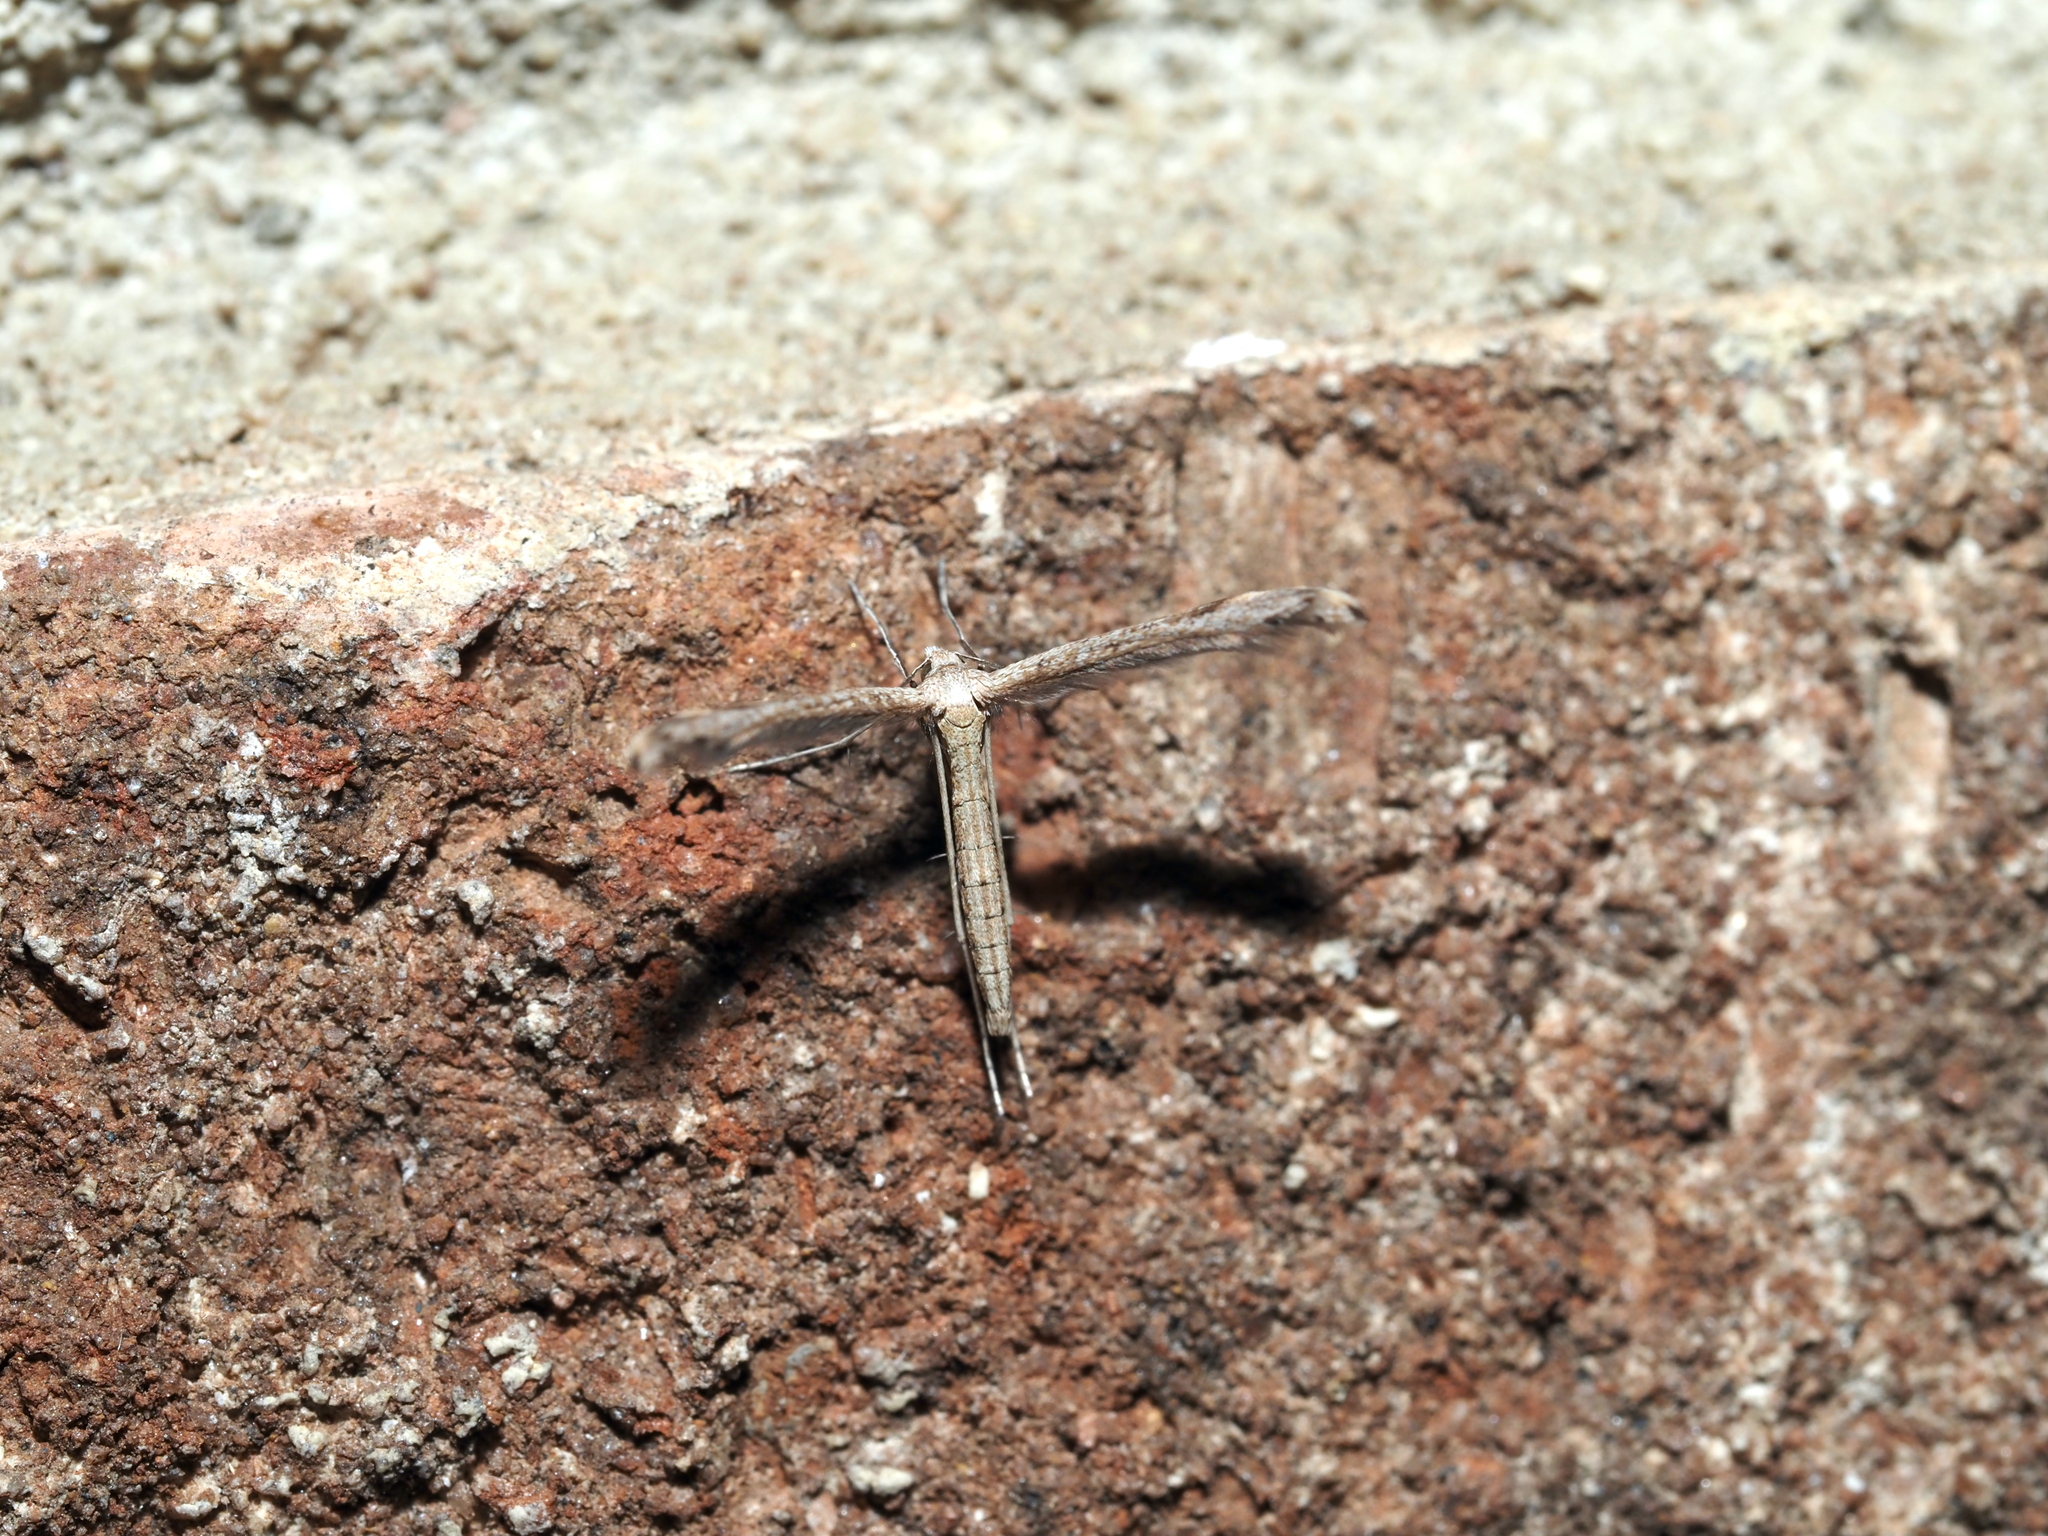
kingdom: Animalia
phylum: Arthropoda
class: Insecta
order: Lepidoptera
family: Pterophoridae
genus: Lioptilodes
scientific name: Lioptilodes albistriolatus
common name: Moth
